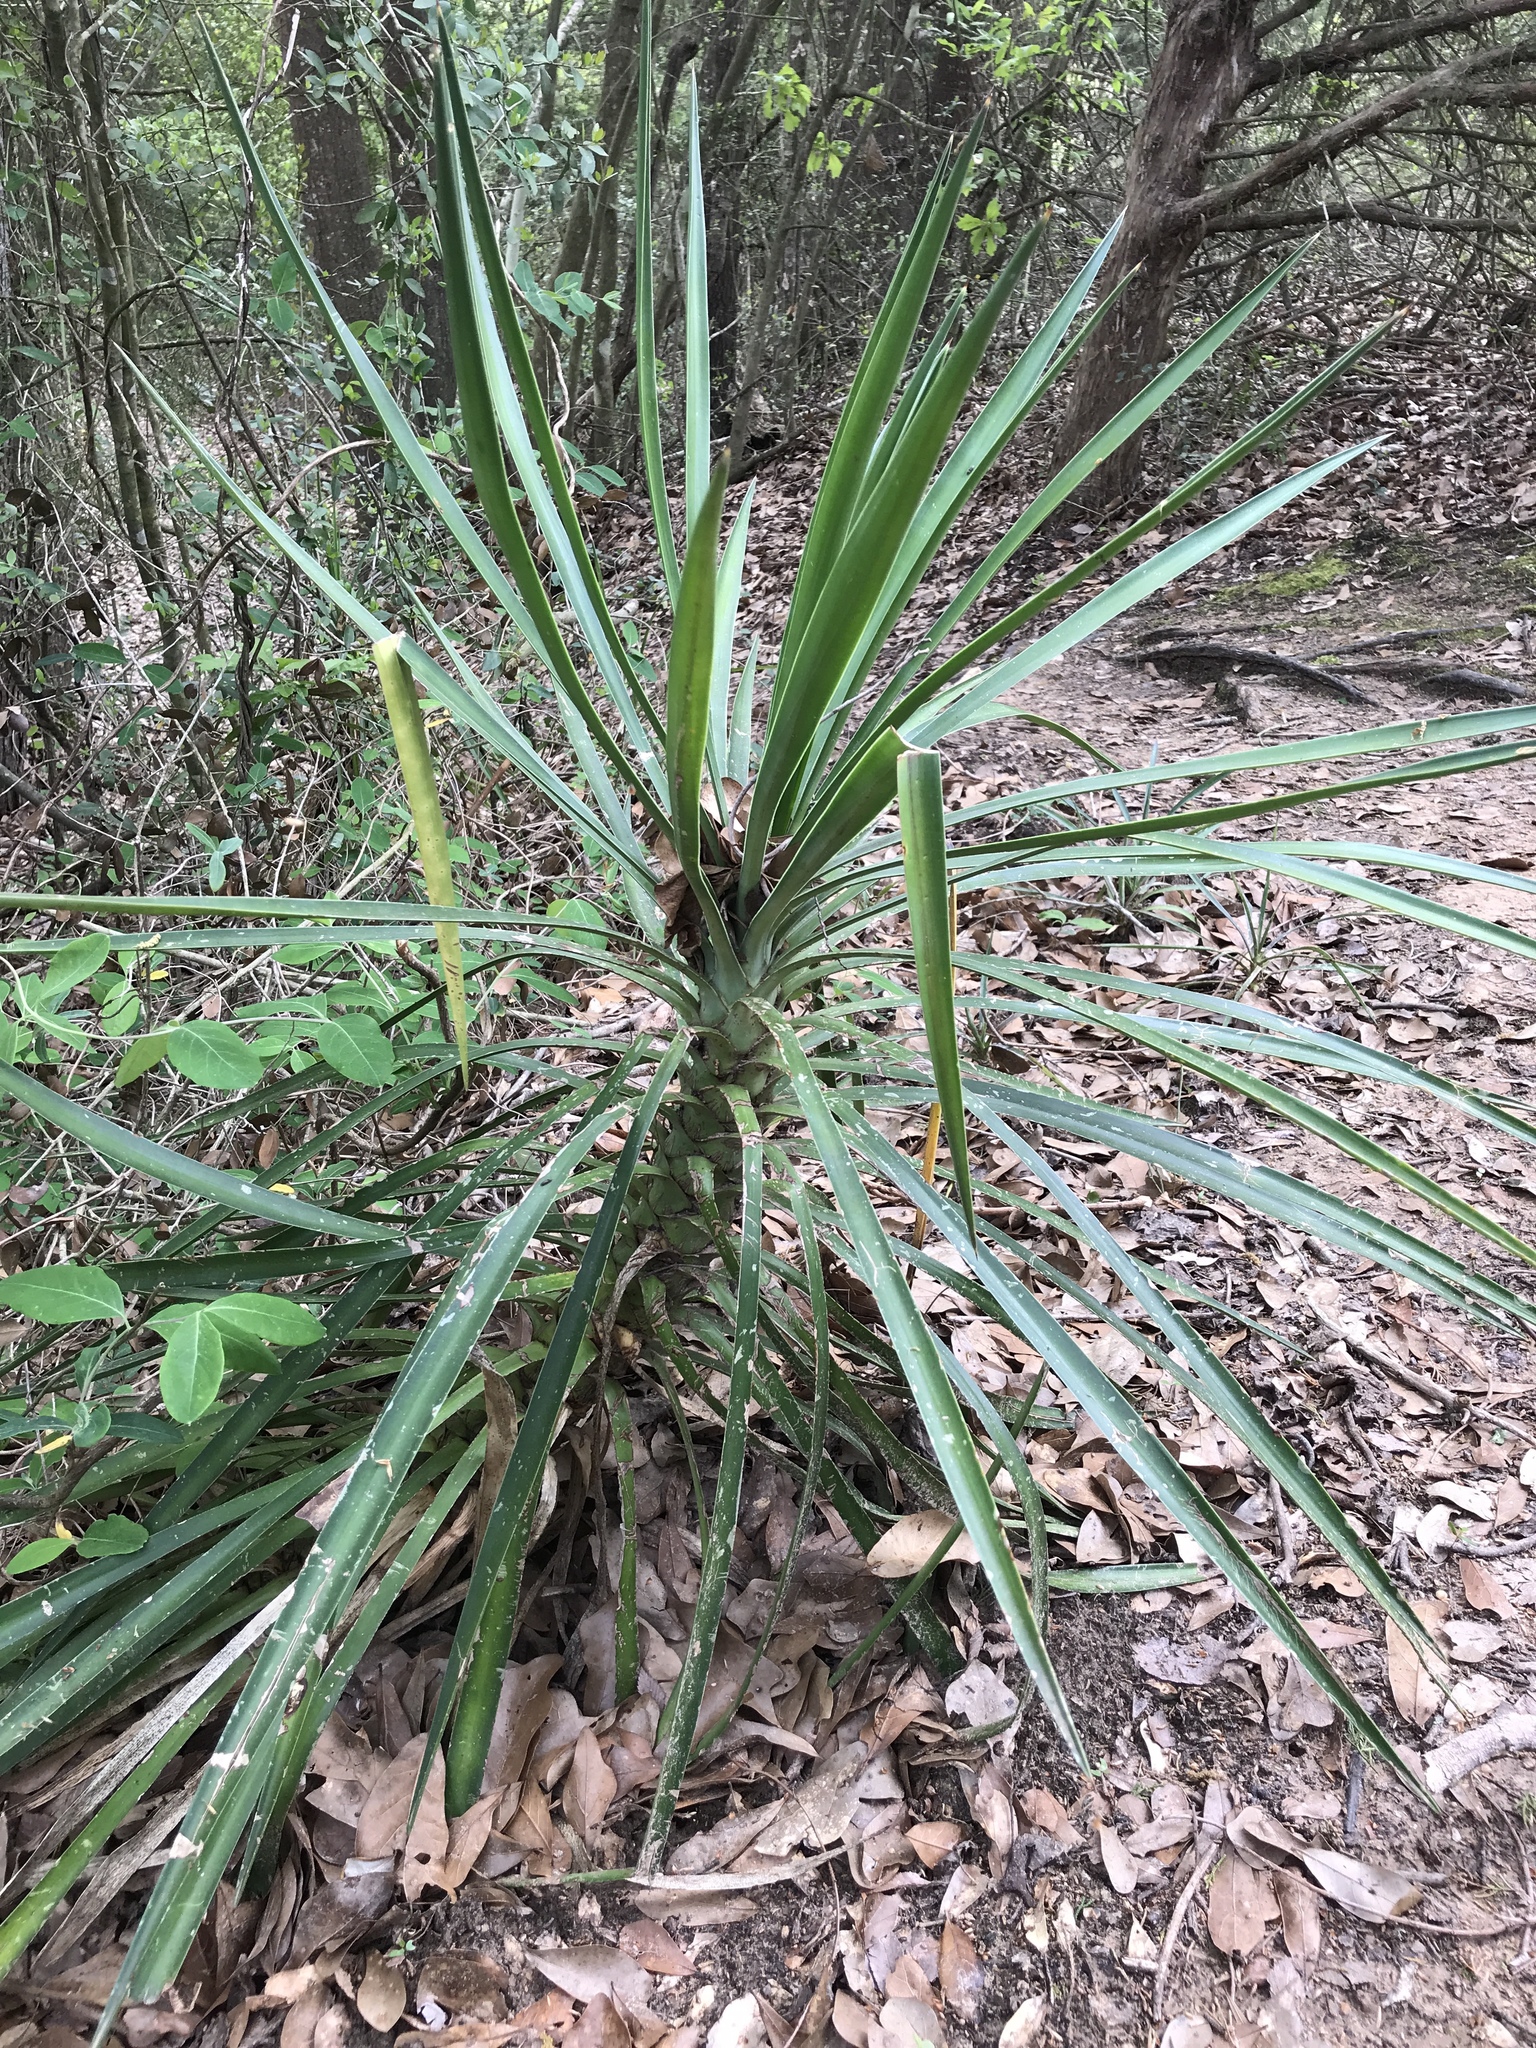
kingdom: Plantae
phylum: Tracheophyta
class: Liliopsida
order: Asparagales
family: Asparagaceae
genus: Yucca
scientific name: Yucca aloifolia
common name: Aloe yucca
